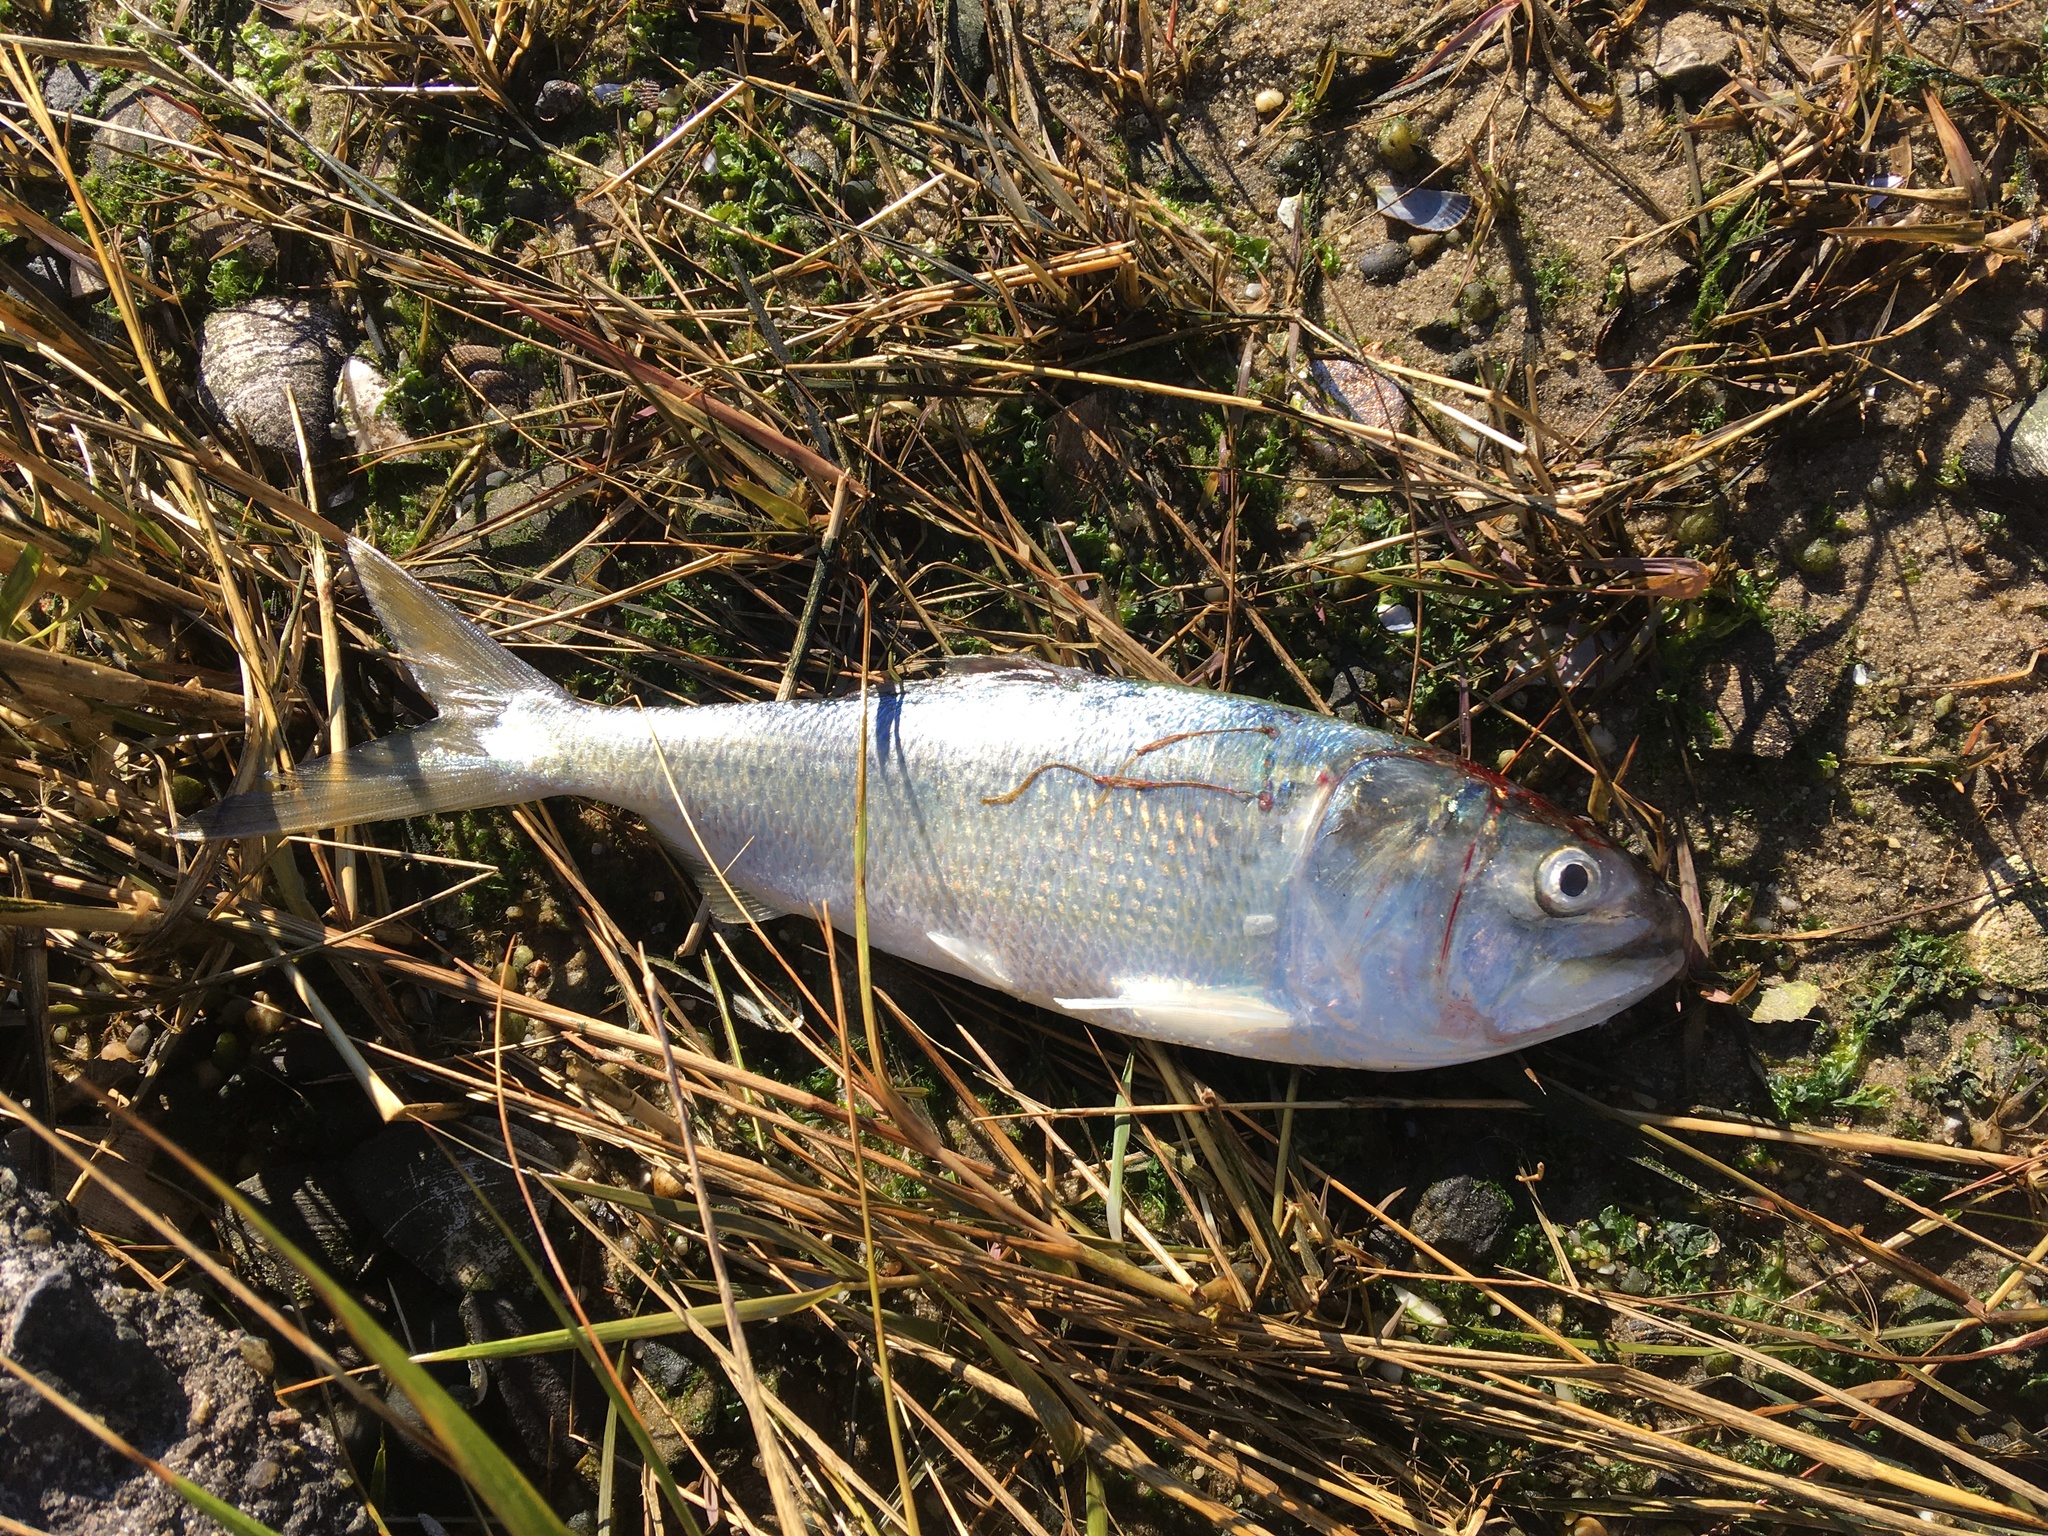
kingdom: Animalia
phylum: Chordata
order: Clupeiformes
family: Clupeidae
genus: Brevoortia
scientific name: Brevoortia tyrannus
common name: Atlantic menhaden
